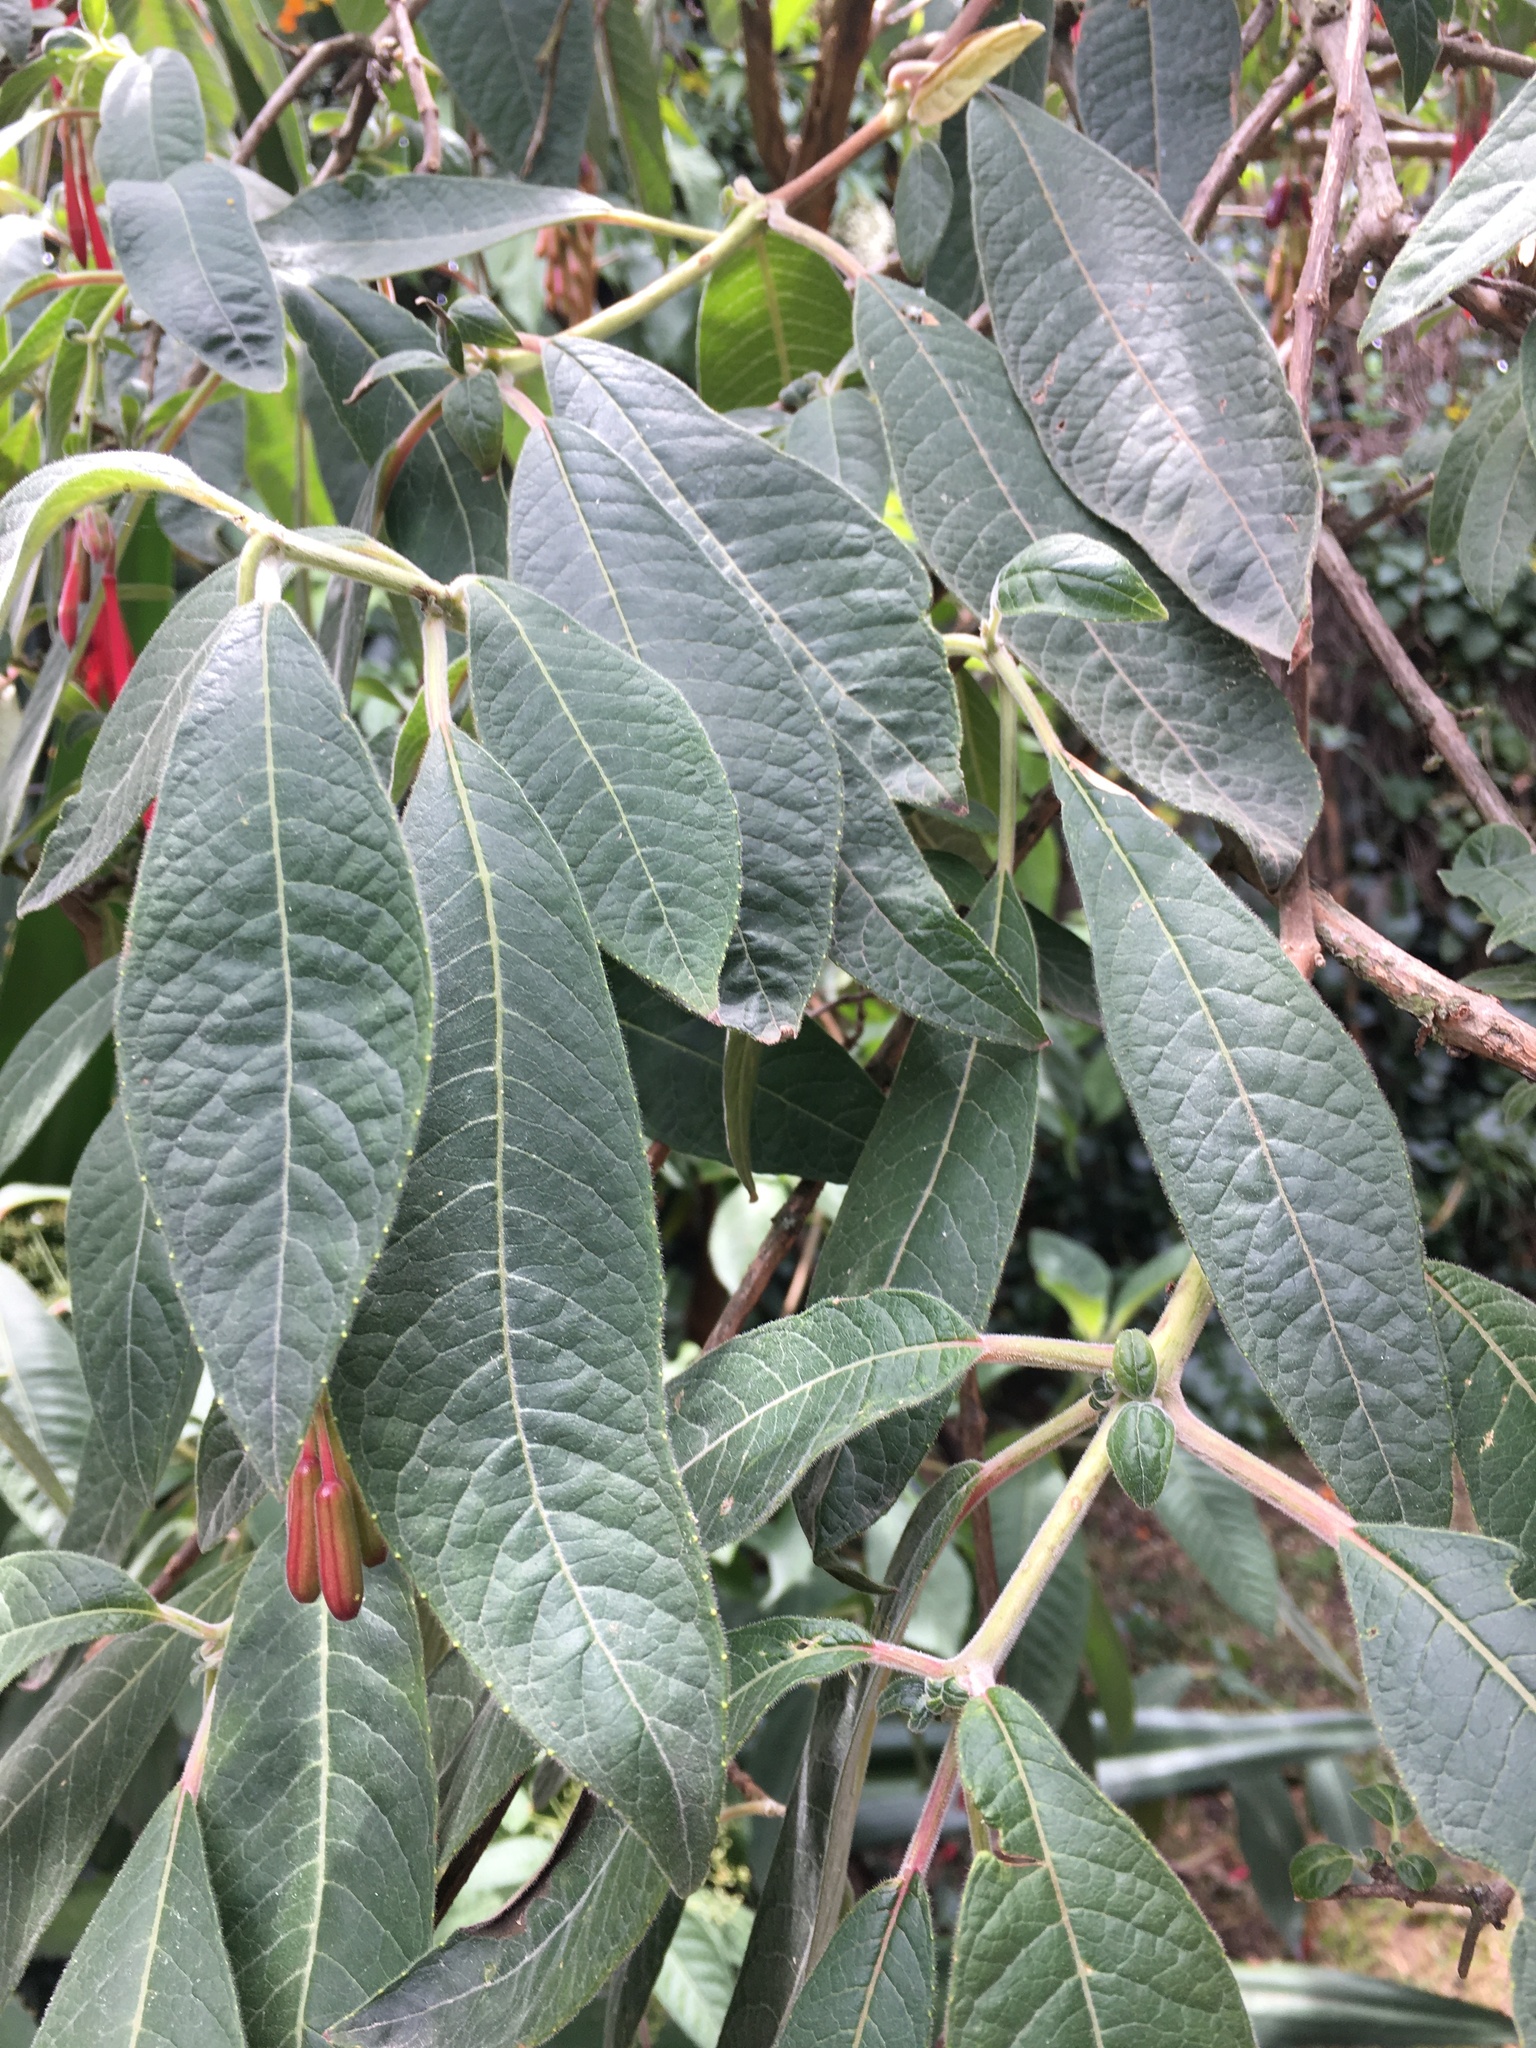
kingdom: Plantae
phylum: Tracheophyta
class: Magnoliopsida
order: Myrtales
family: Onagraceae
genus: Fuchsia
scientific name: Fuchsia boliviana
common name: Bolivian fuchsia
